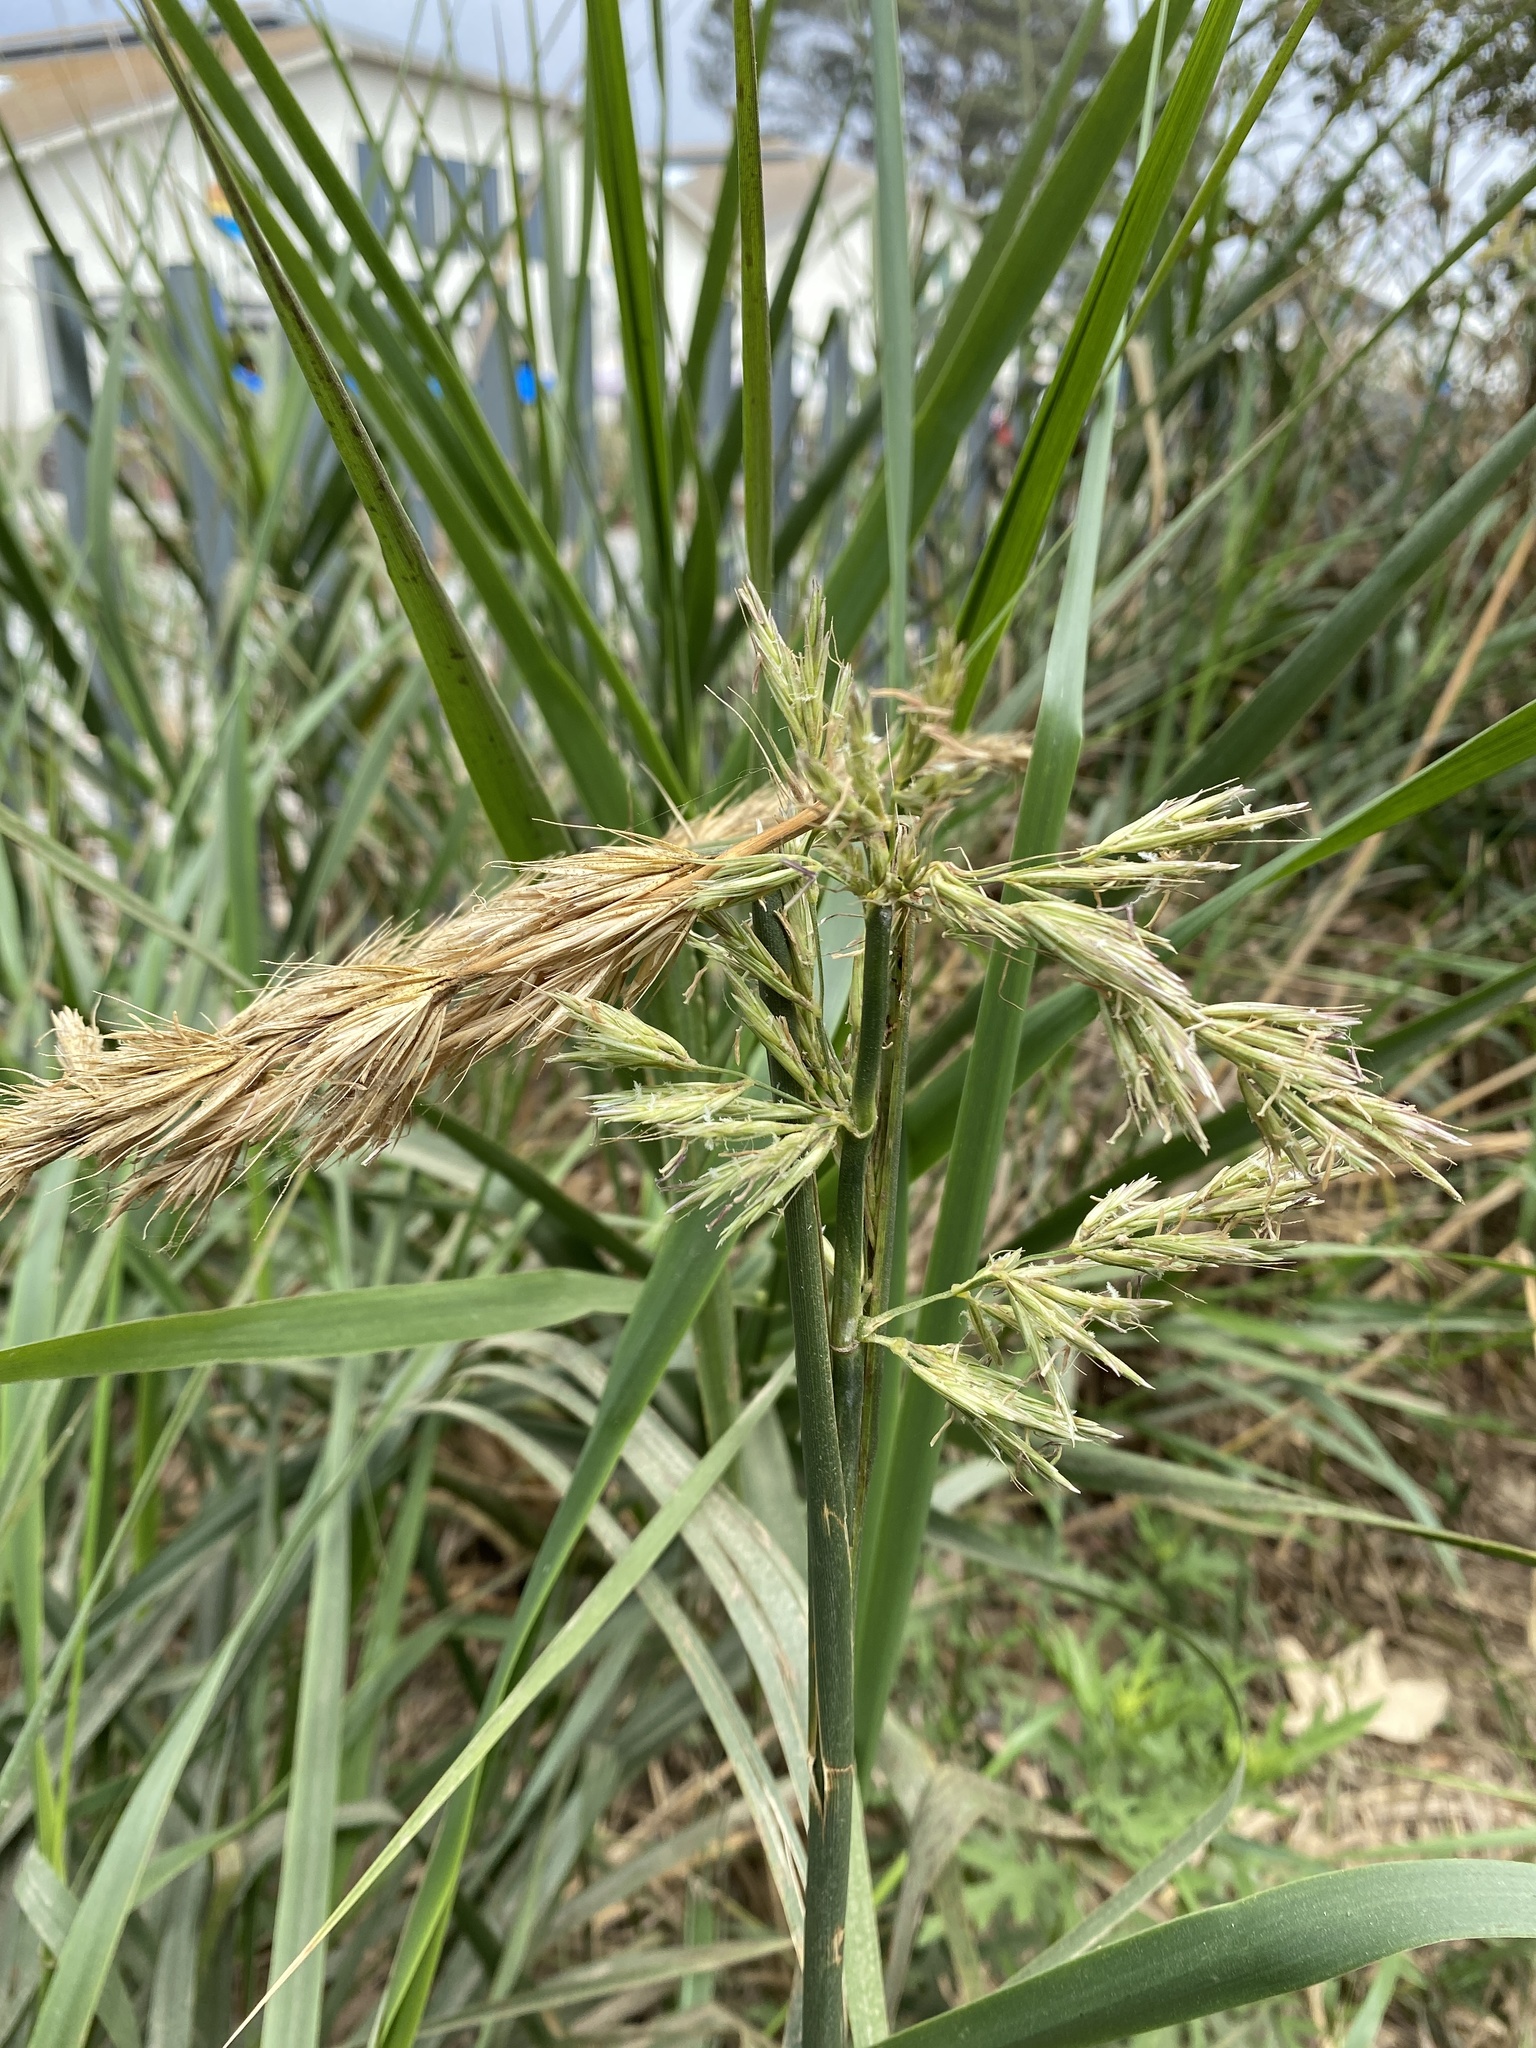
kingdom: Plantae
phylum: Tracheophyta
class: Liliopsida
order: Poales
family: Poaceae
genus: Leymus
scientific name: Leymus condensatus
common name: Giant wild rye
